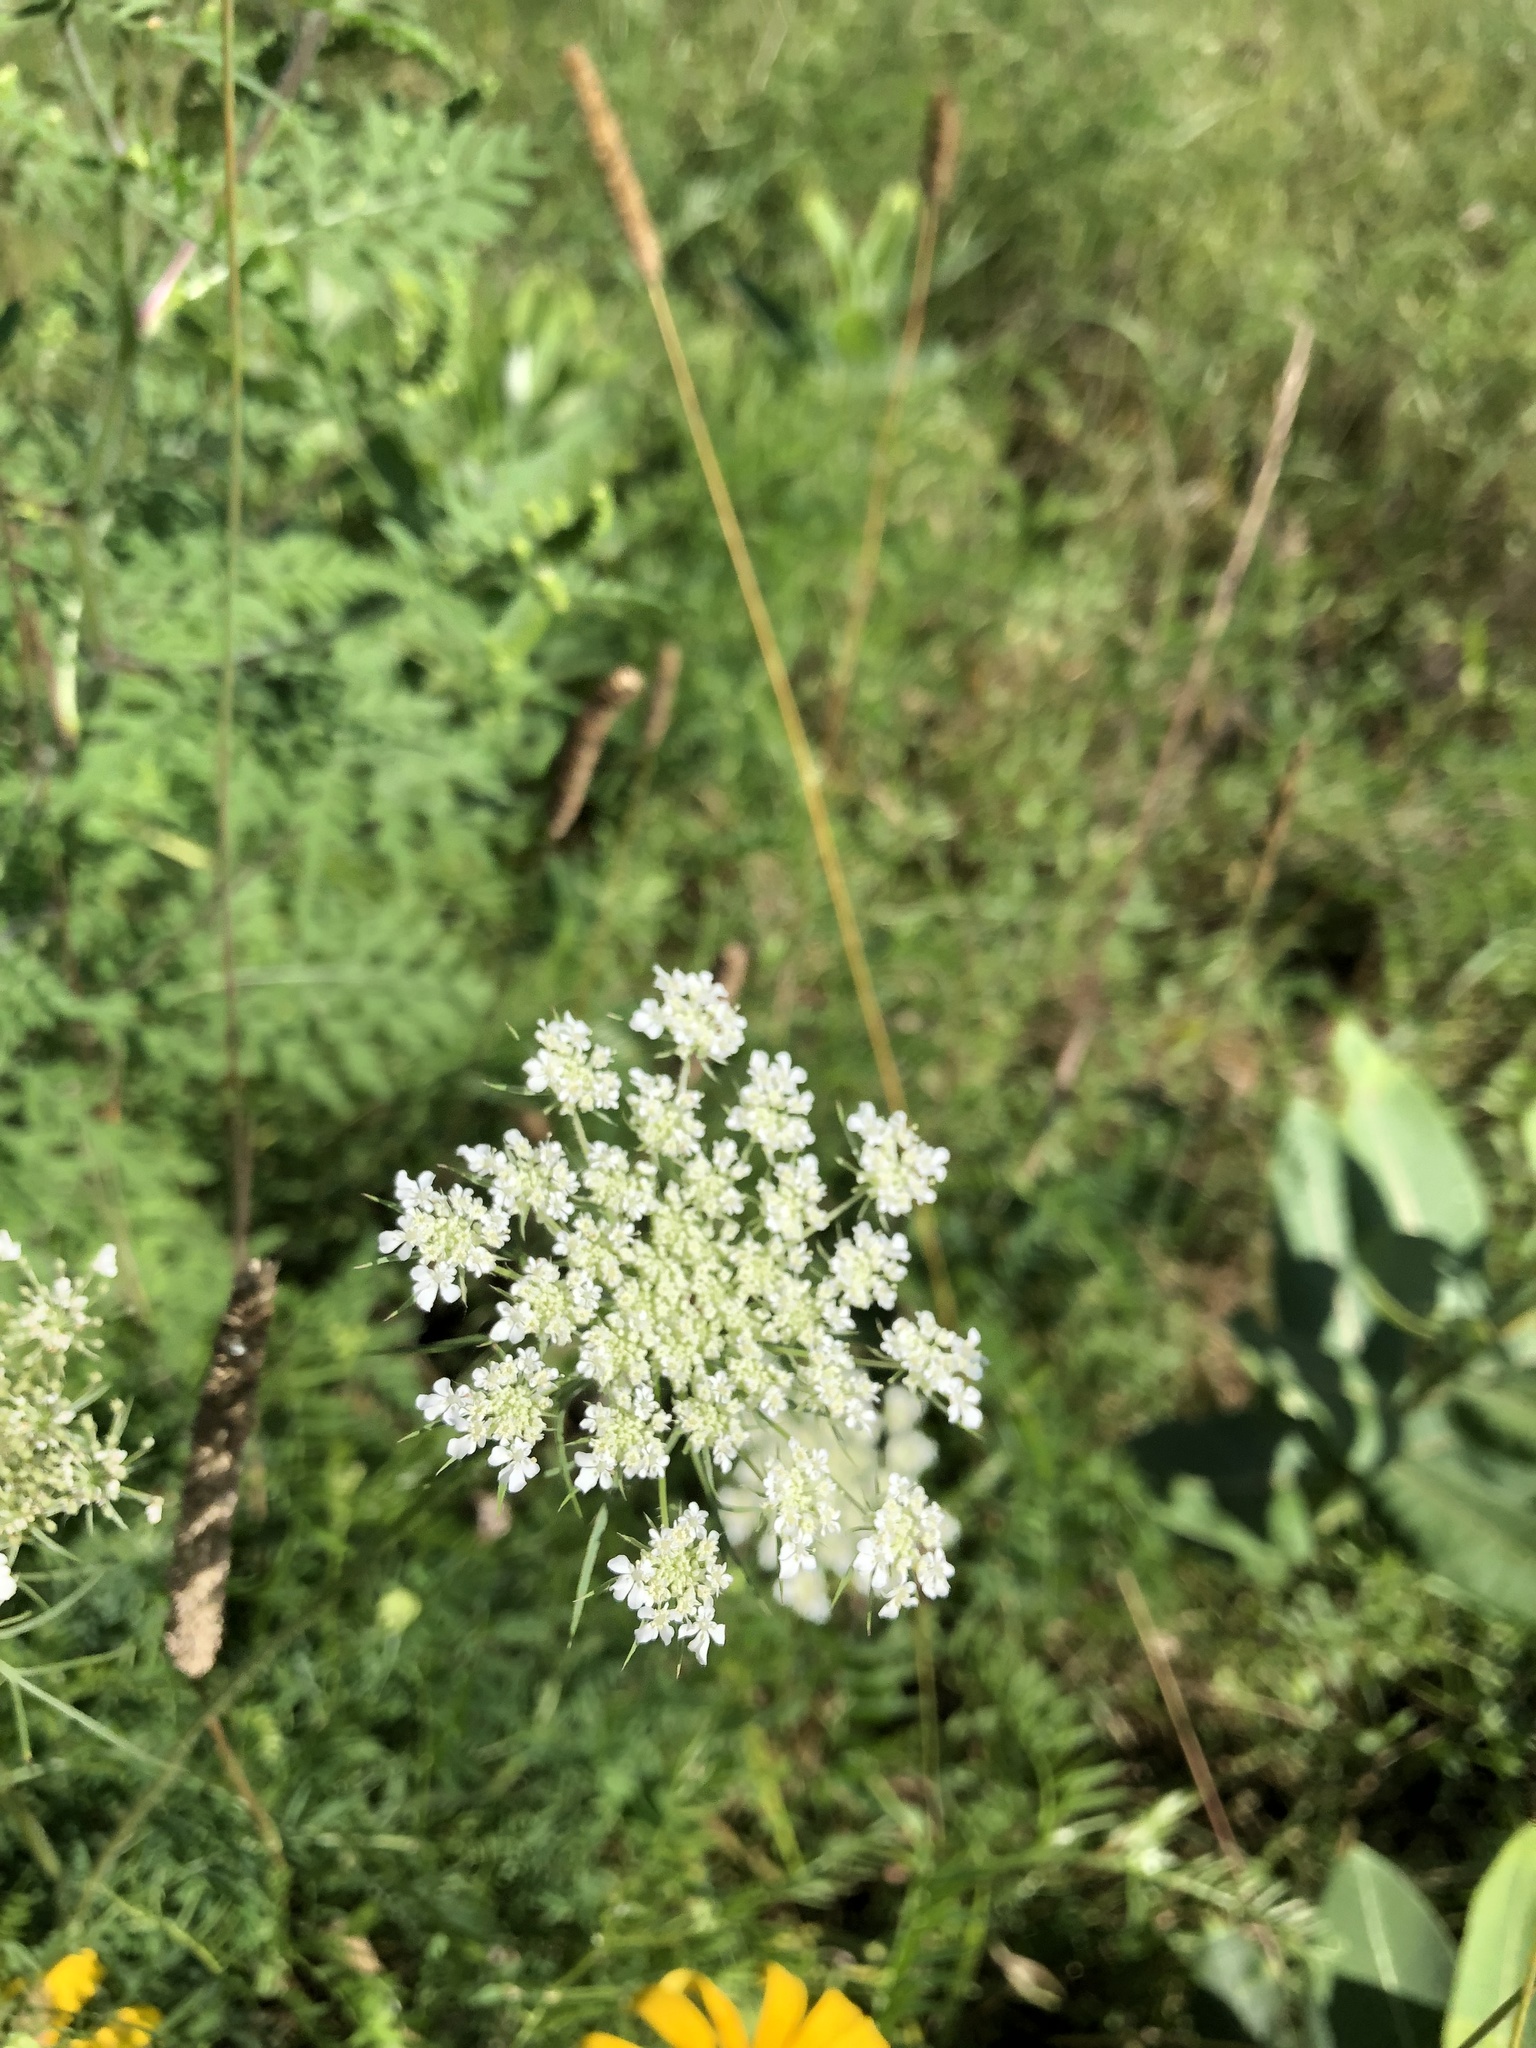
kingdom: Plantae
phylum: Tracheophyta
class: Magnoliopsida
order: Apiales
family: Apiaceae
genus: Daucus
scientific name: Daucus carota
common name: Wild carrot
